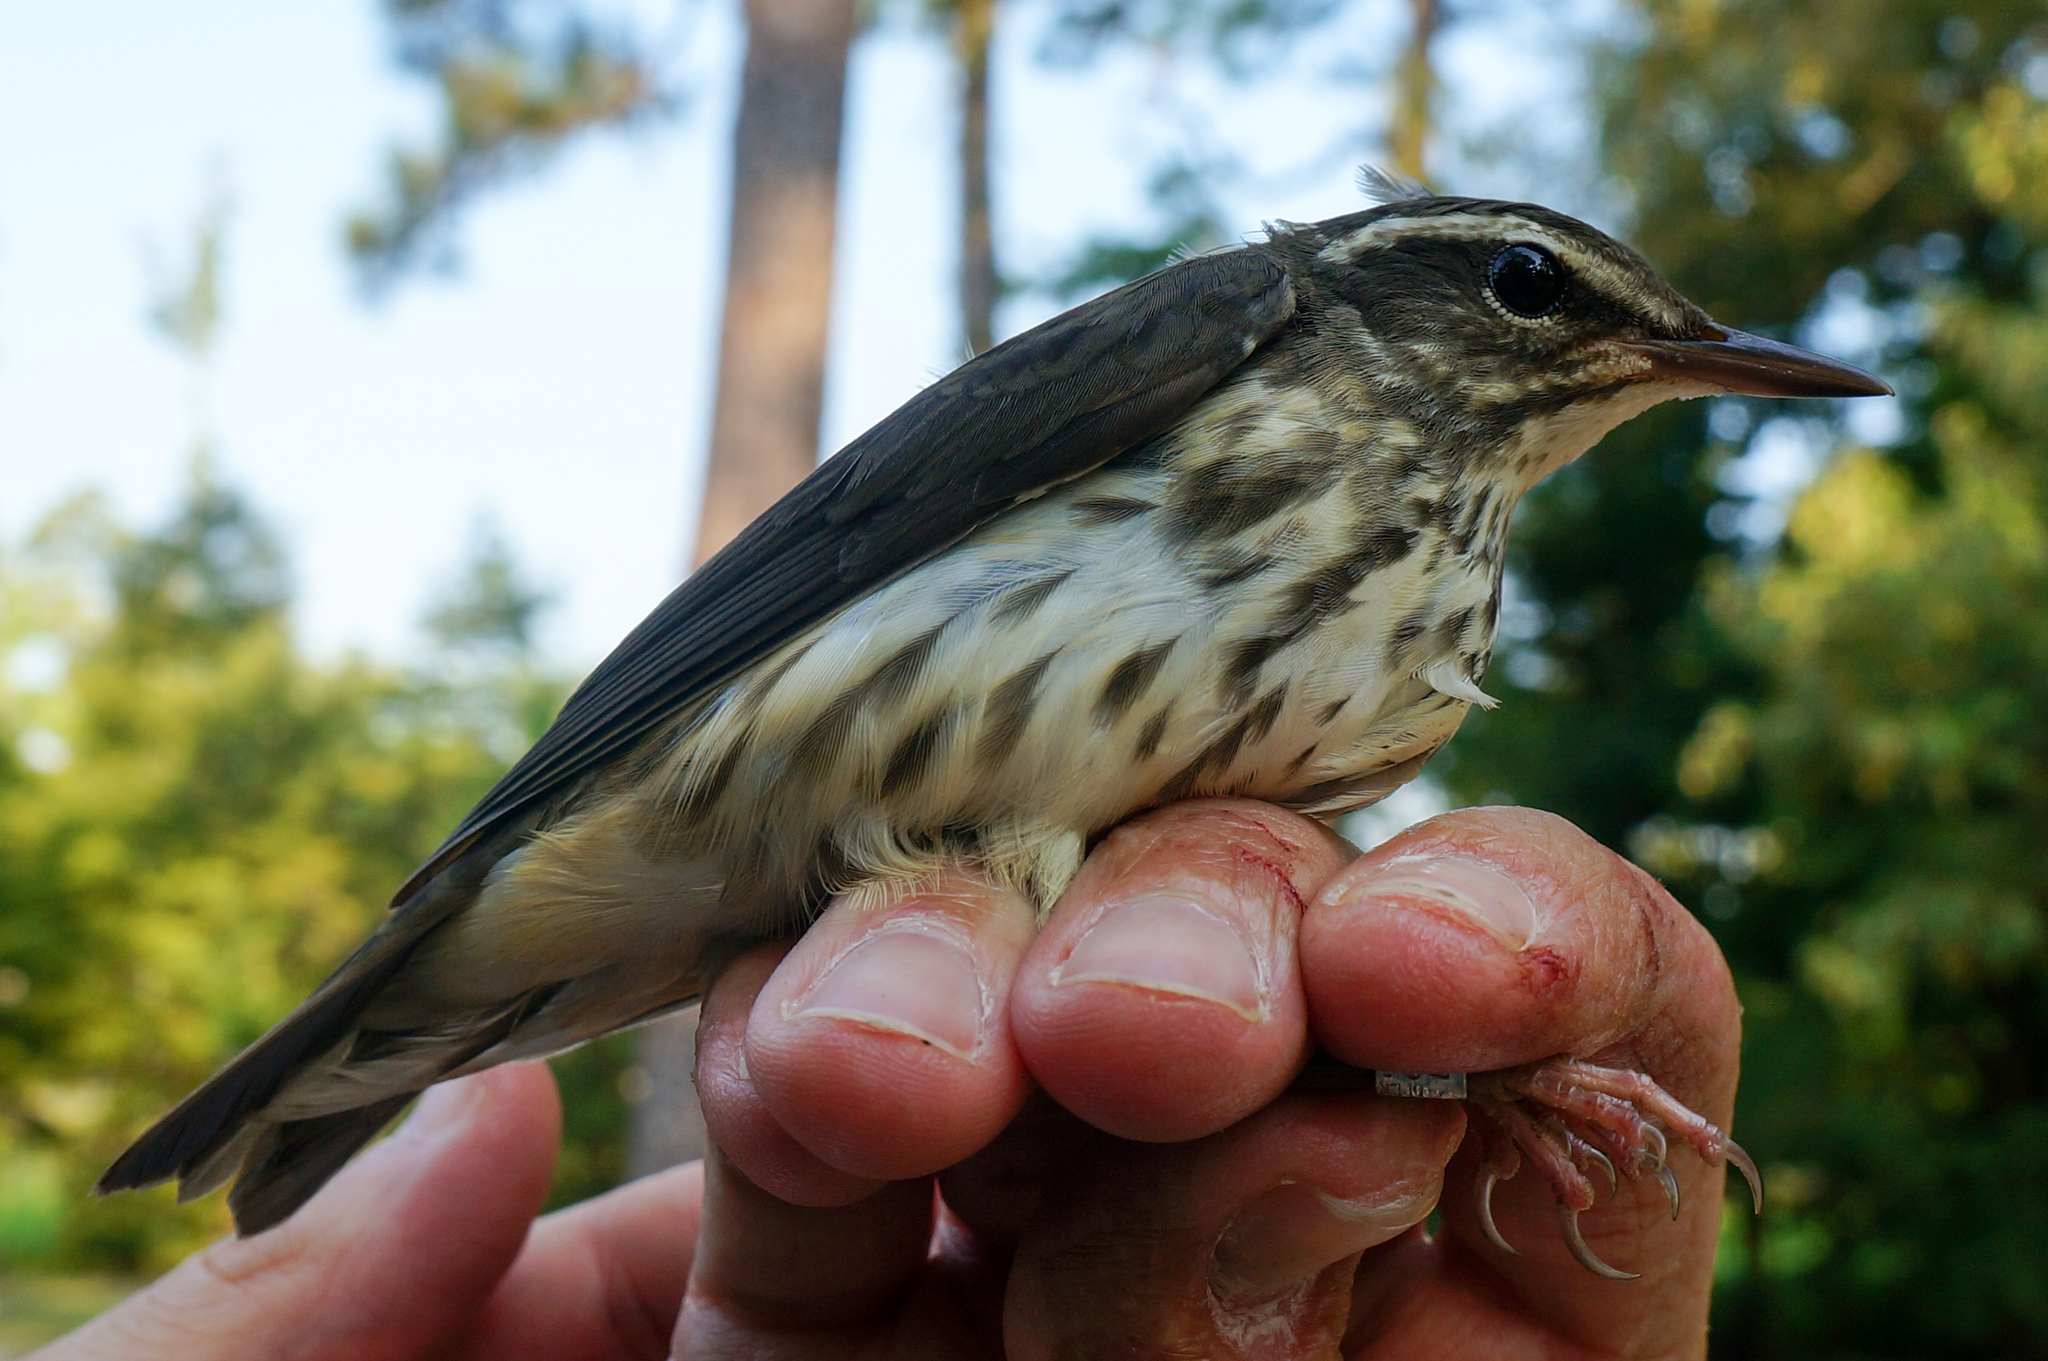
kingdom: Animalia
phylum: Chordata
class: Aves
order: Passeriformes
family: Parulidae
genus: Parkesia
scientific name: Parkesia motacilla
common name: Louisiana waterthrush
